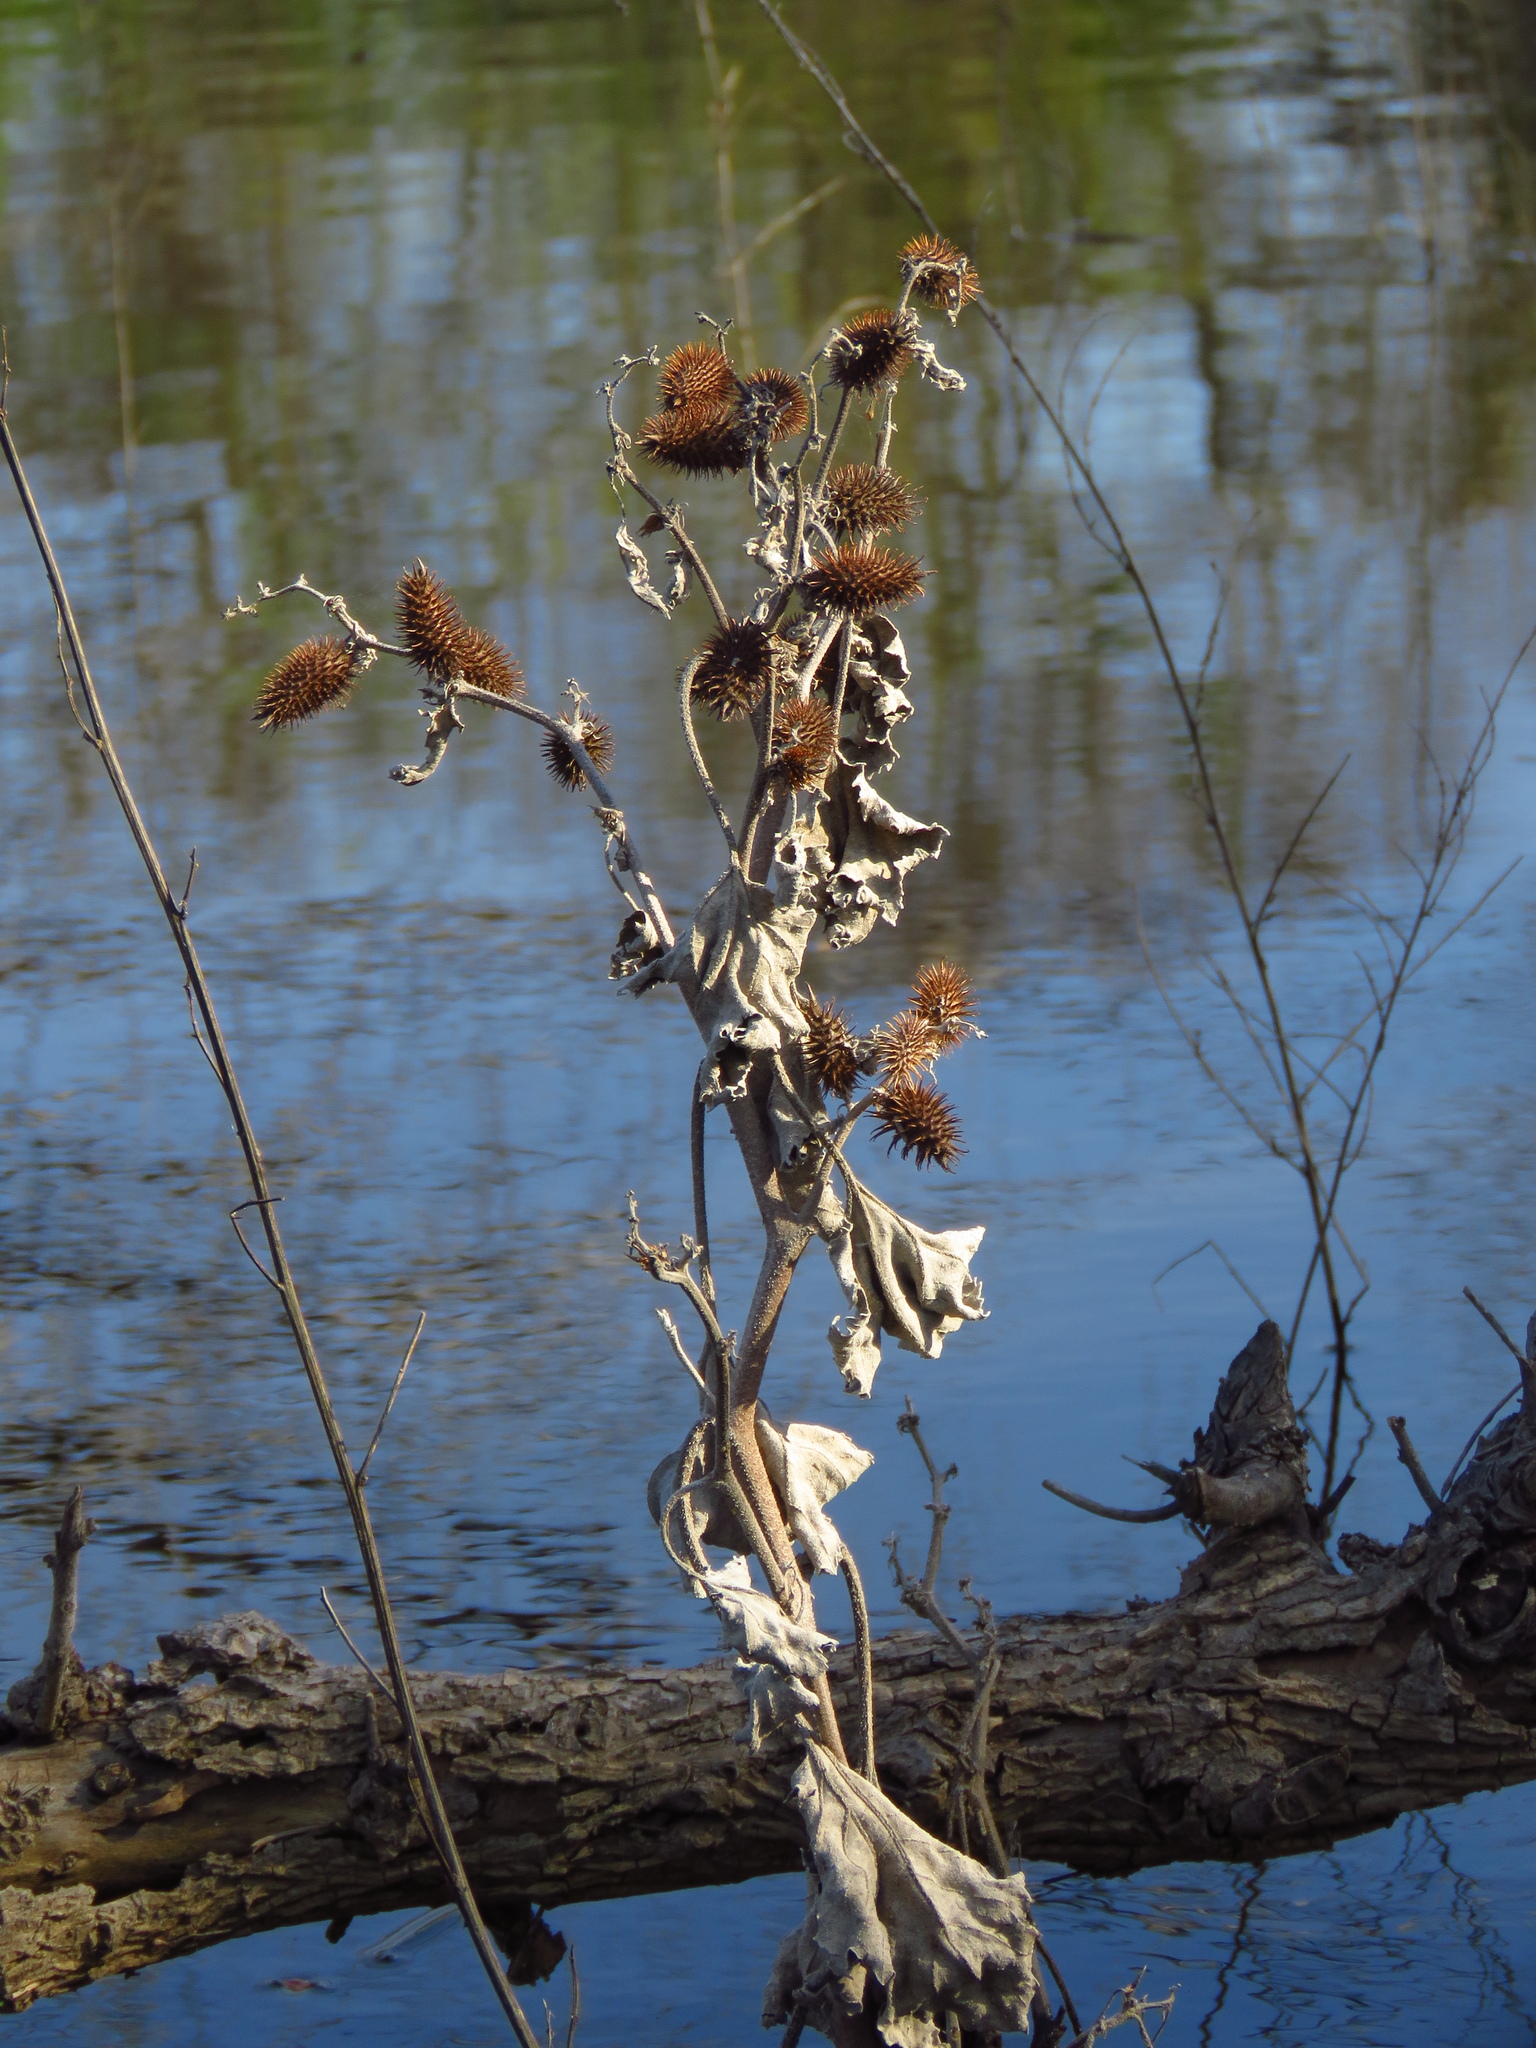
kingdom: Plantae
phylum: Tracheophyta
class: Magnoliopsida
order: Asterales
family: Asteraceae
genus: Xanthium
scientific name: Xanthium strumarium
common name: Rough cocklebur
